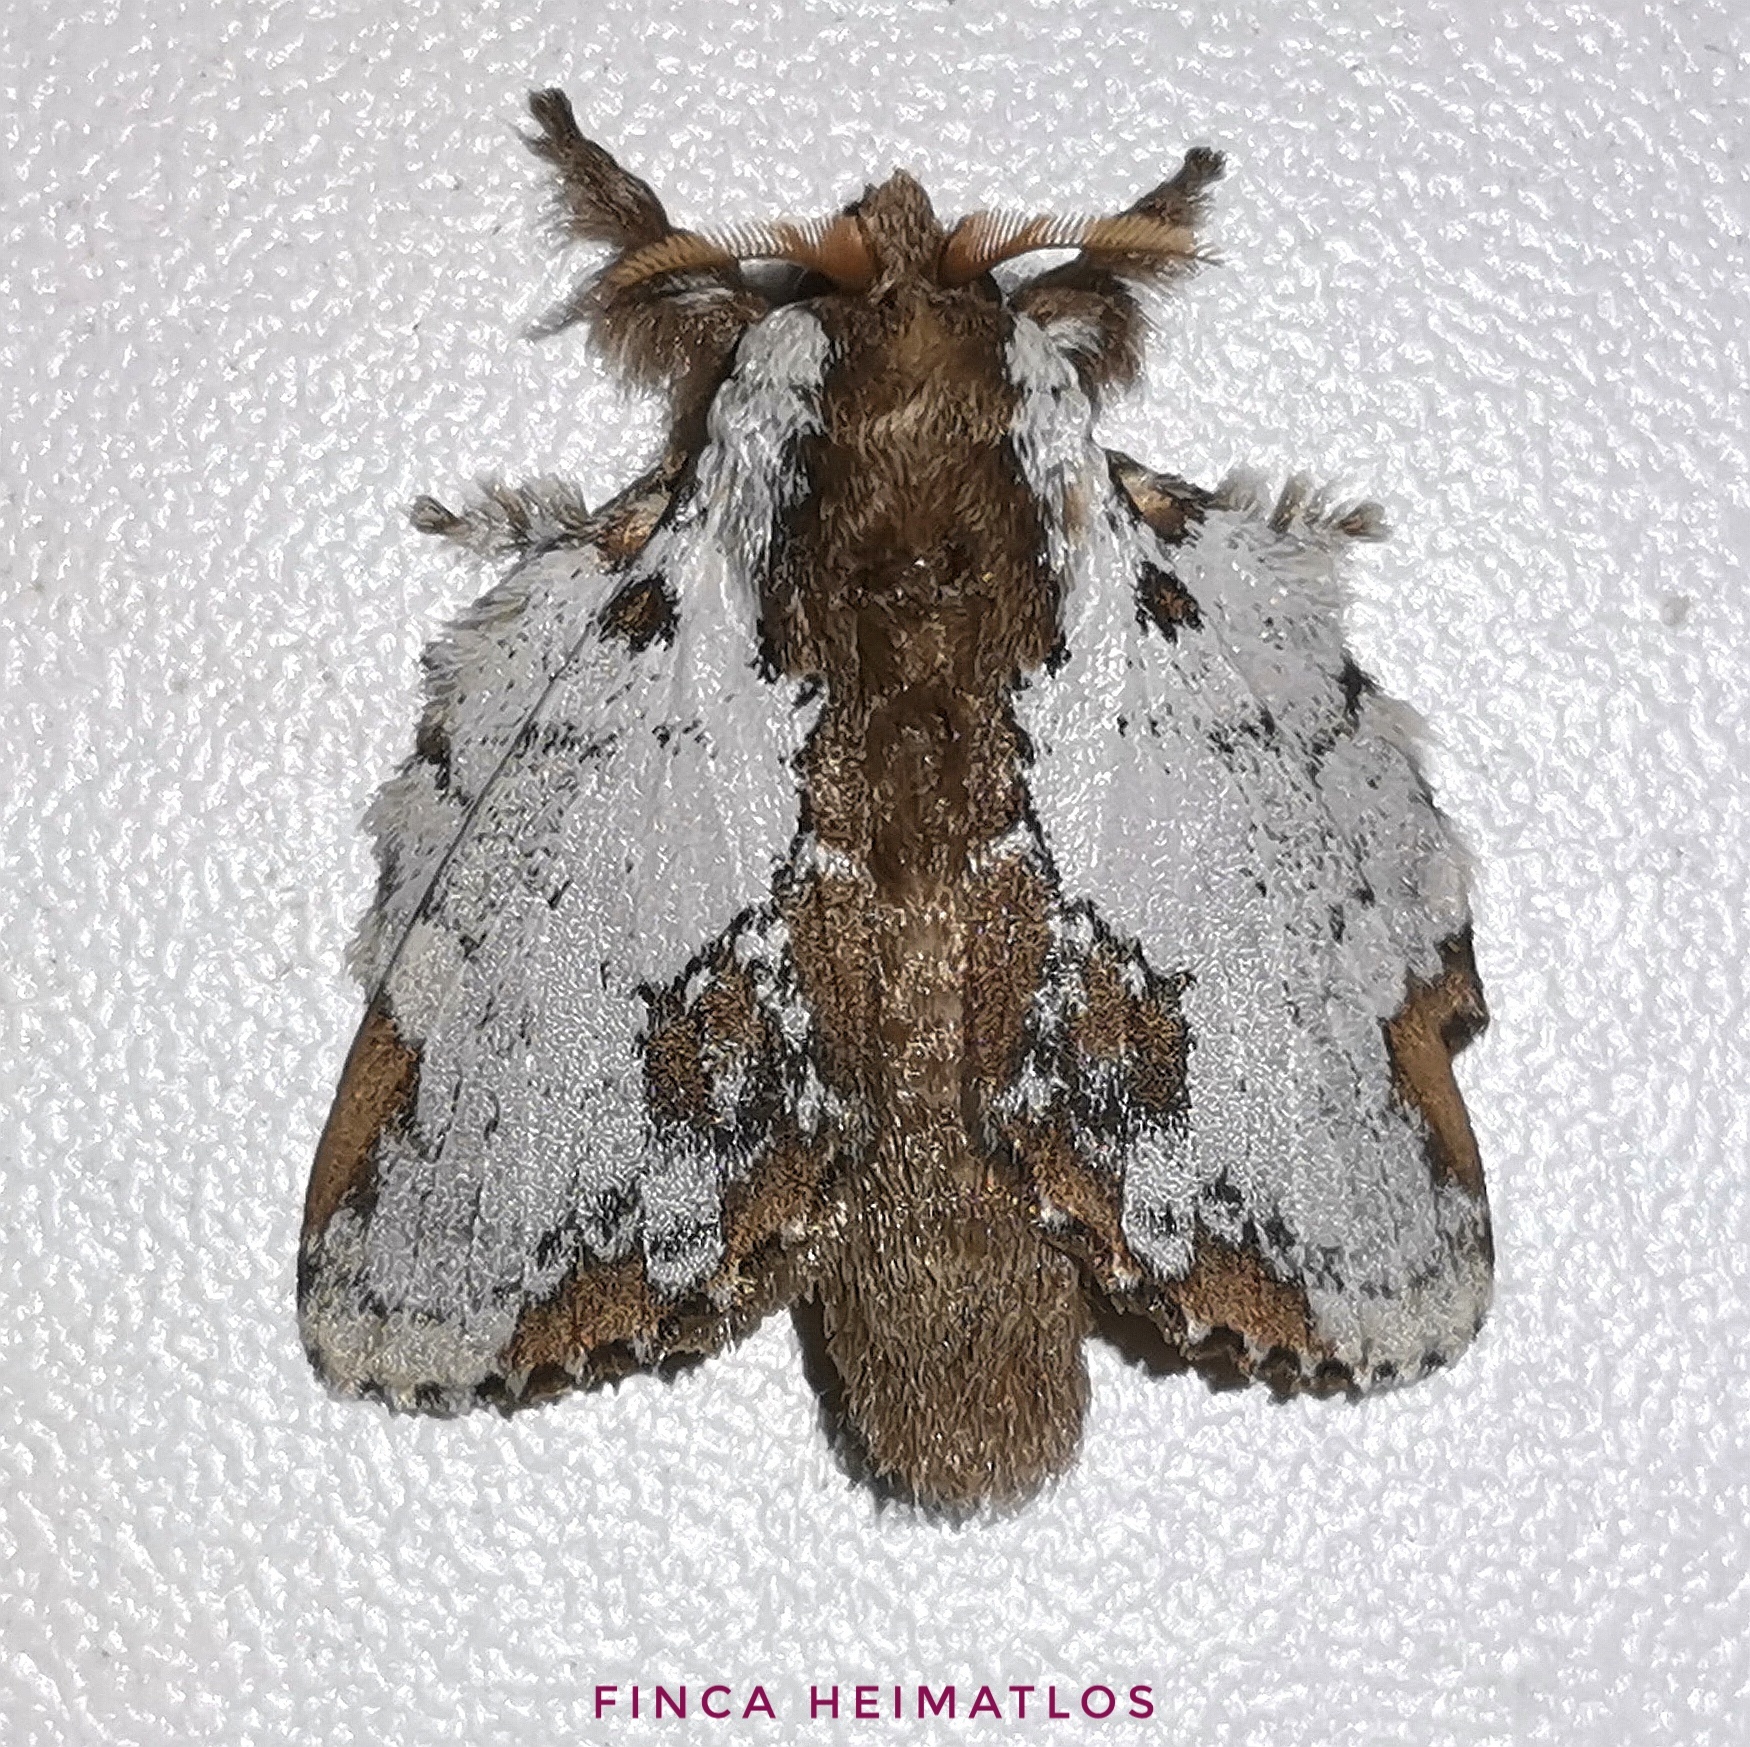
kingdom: Animalia
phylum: Arthropoda
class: Insecta
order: Lepidoptera
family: Lasiocampidae
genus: Euglyphis
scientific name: Euglyphis braganza
